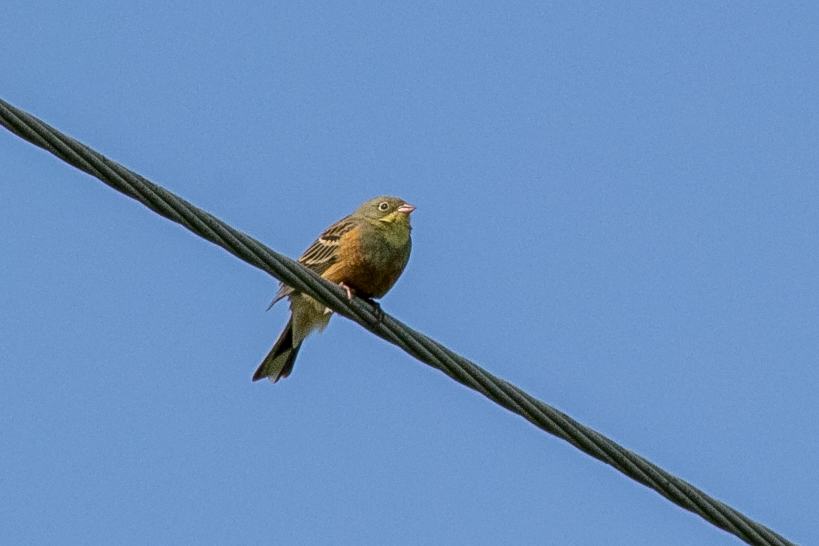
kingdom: Animalia
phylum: Chordata
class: Aves
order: Passeriformes
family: Emberizidae
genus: Emberiza
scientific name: Emberiza hortulana
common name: Ortolan bunting
